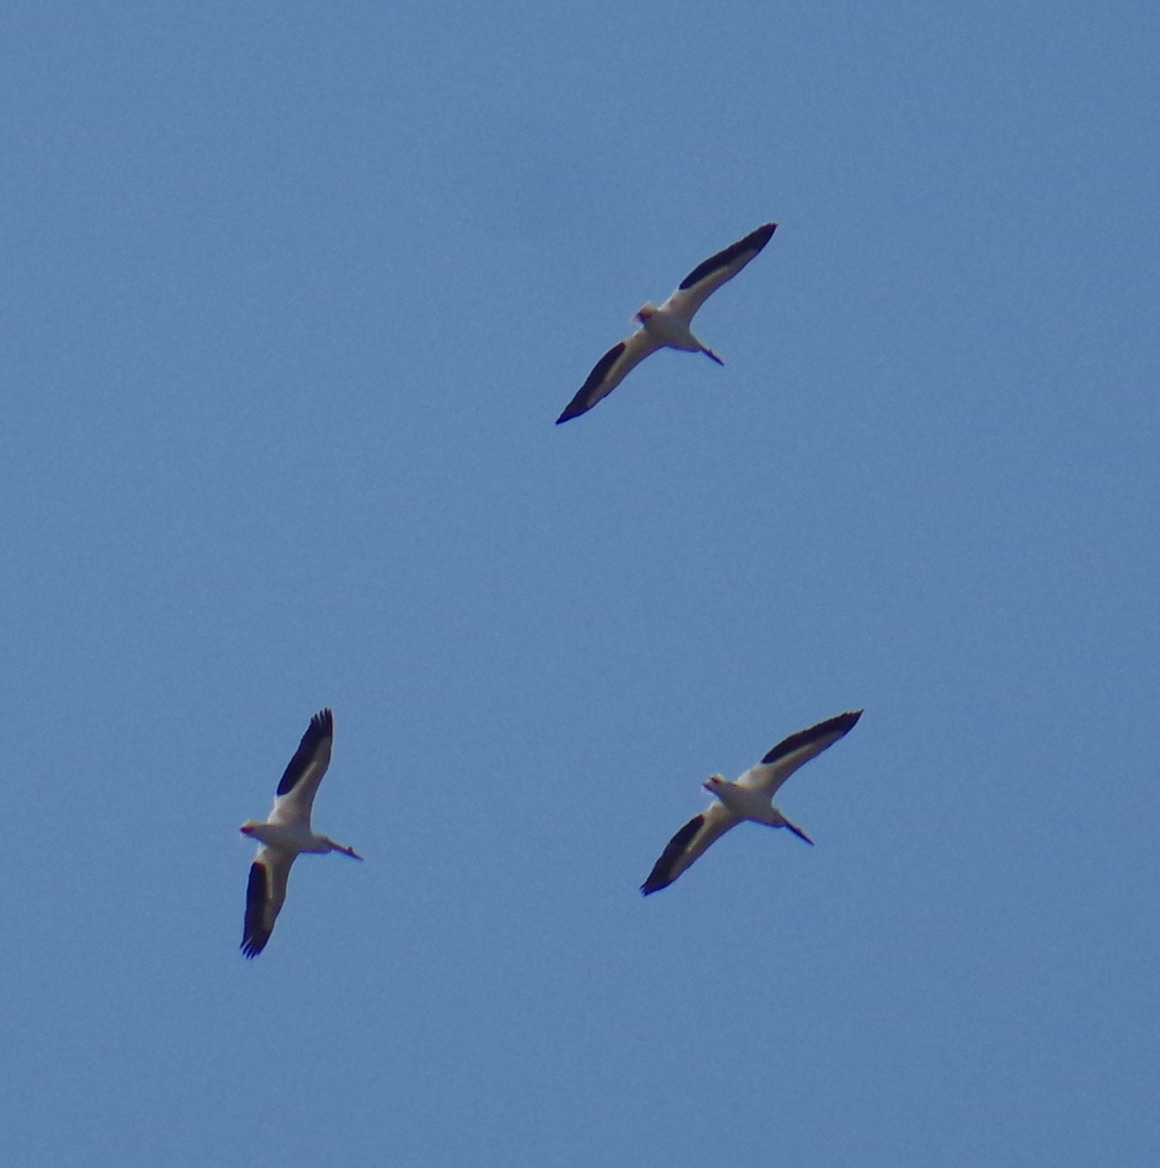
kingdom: Animalia
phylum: Chordata
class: Aves
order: Pelecaniformes
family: Pelecanidae
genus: Pelecanus
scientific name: Pelecanus erythrorhynchos
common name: American white pelican
